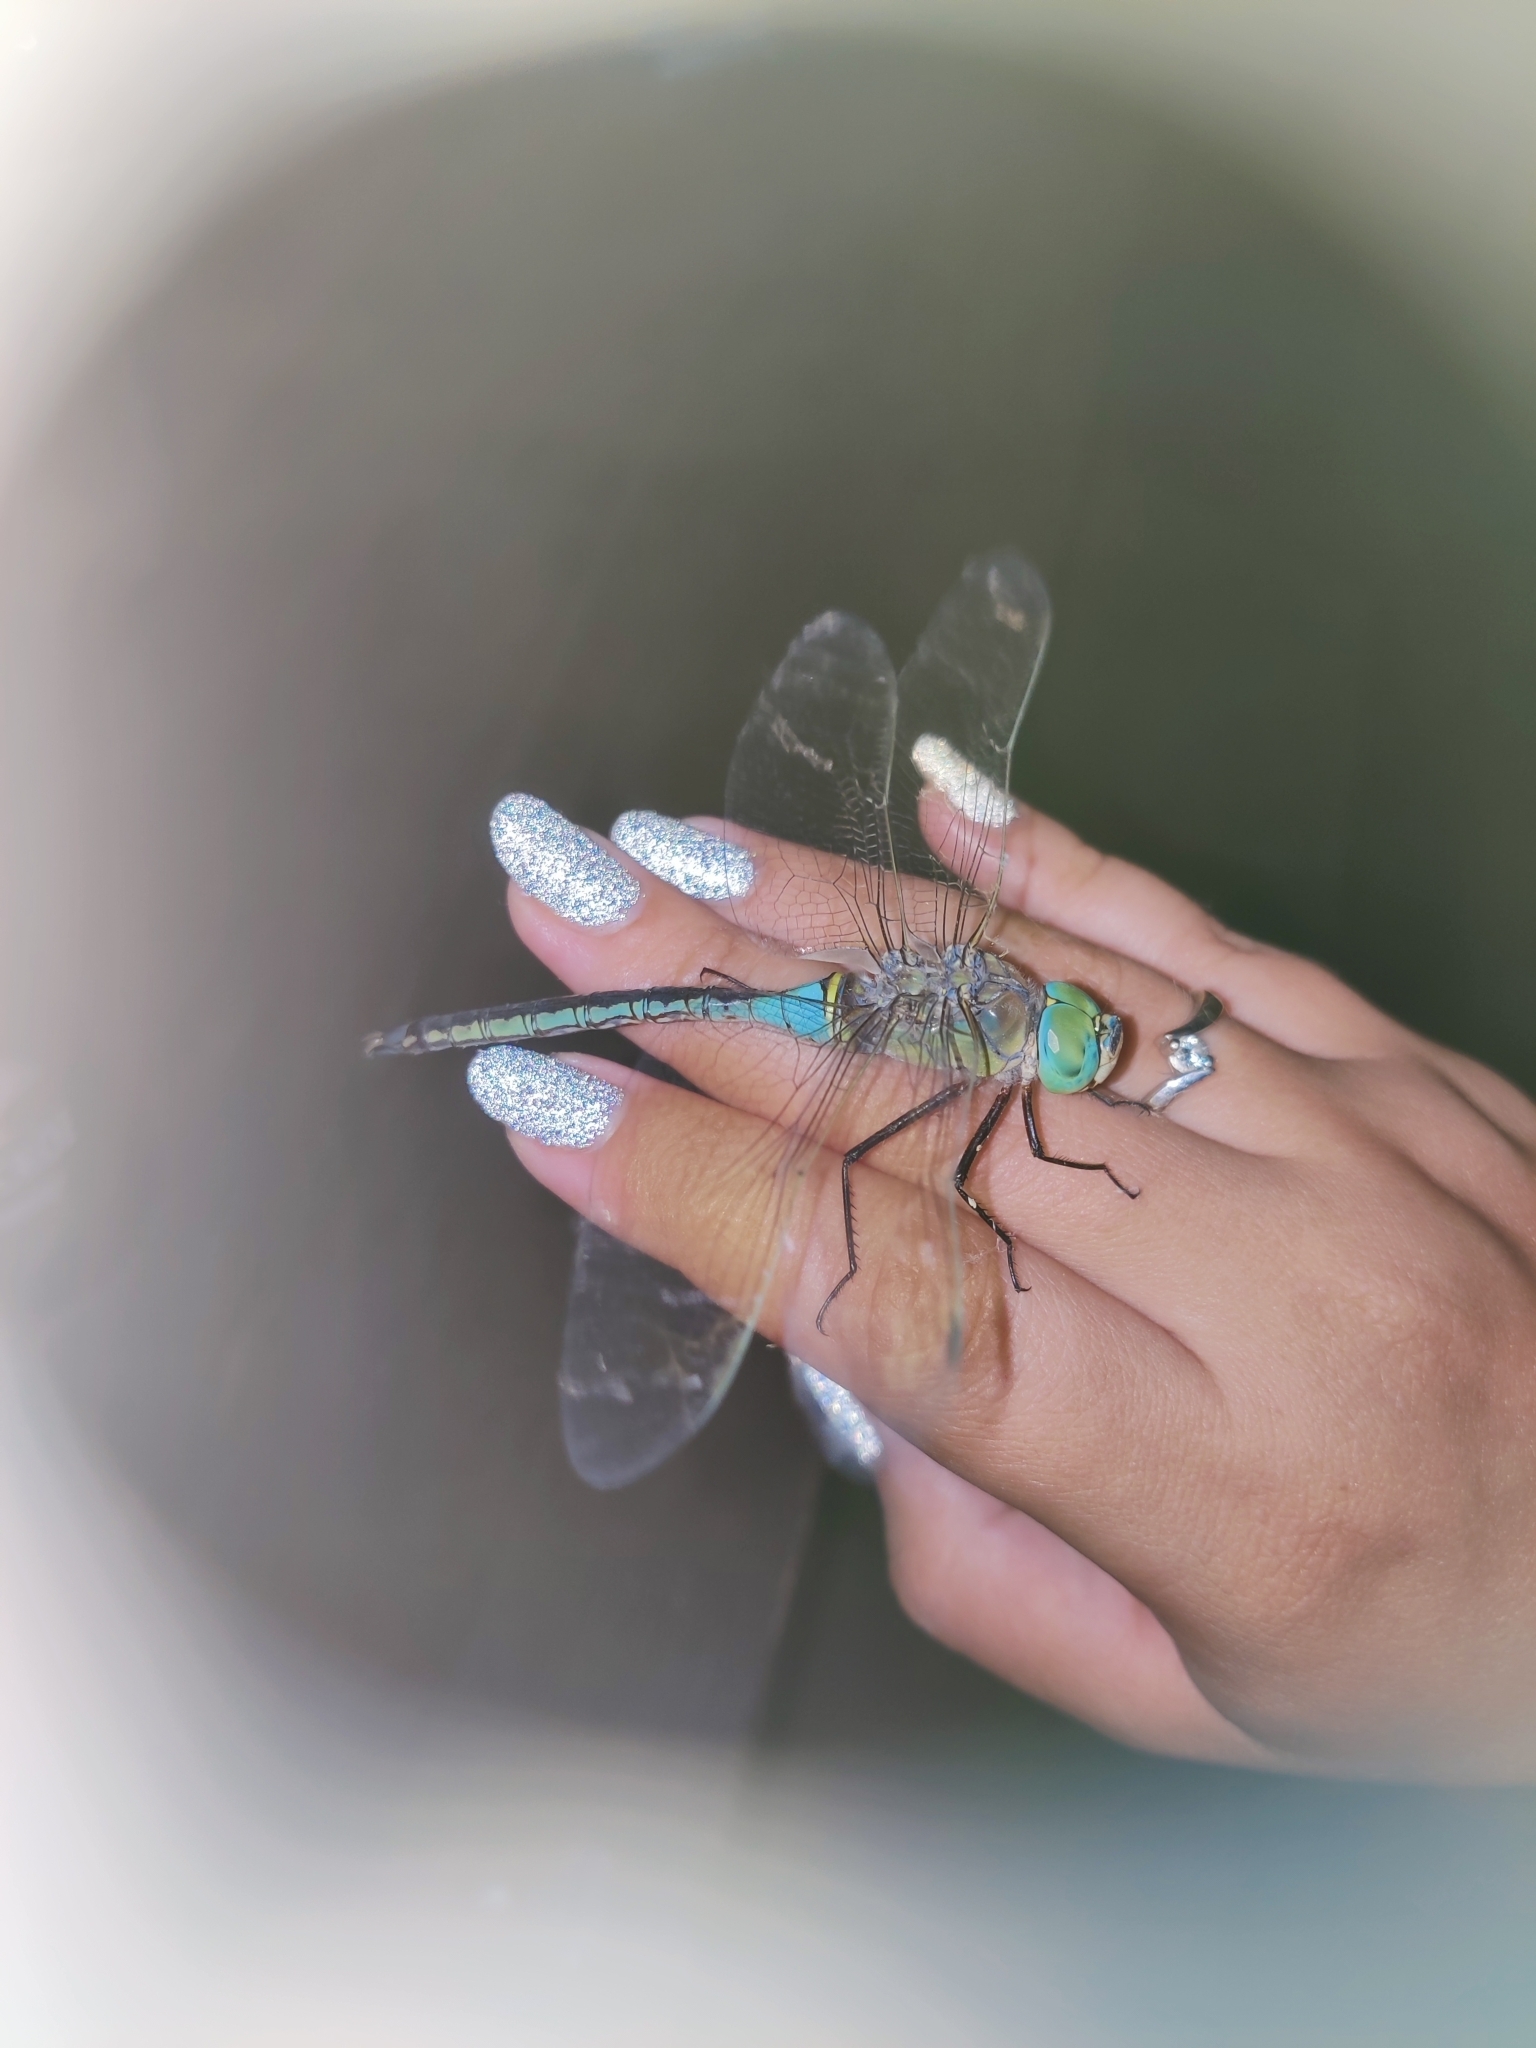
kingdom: Animalia
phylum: Arthropoda
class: Insecta
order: Odonata
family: Aeshnidae
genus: Anax
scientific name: Anax parthenope
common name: Lesser emperor
